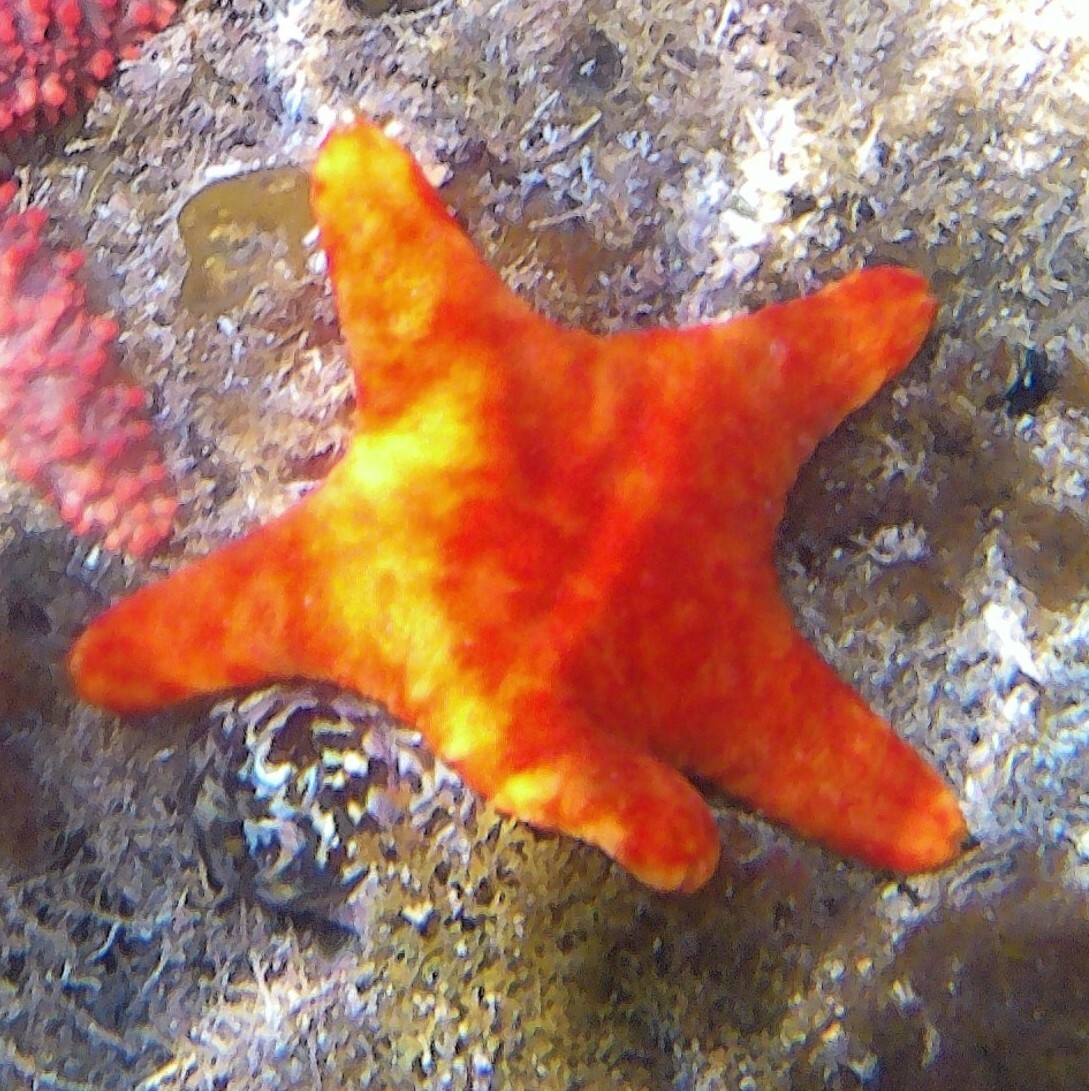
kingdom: Animalia
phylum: Echinodermata
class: Asteroidea
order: Valvatida
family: Asteropseidae
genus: Petricia
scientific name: Petricia vernicina
